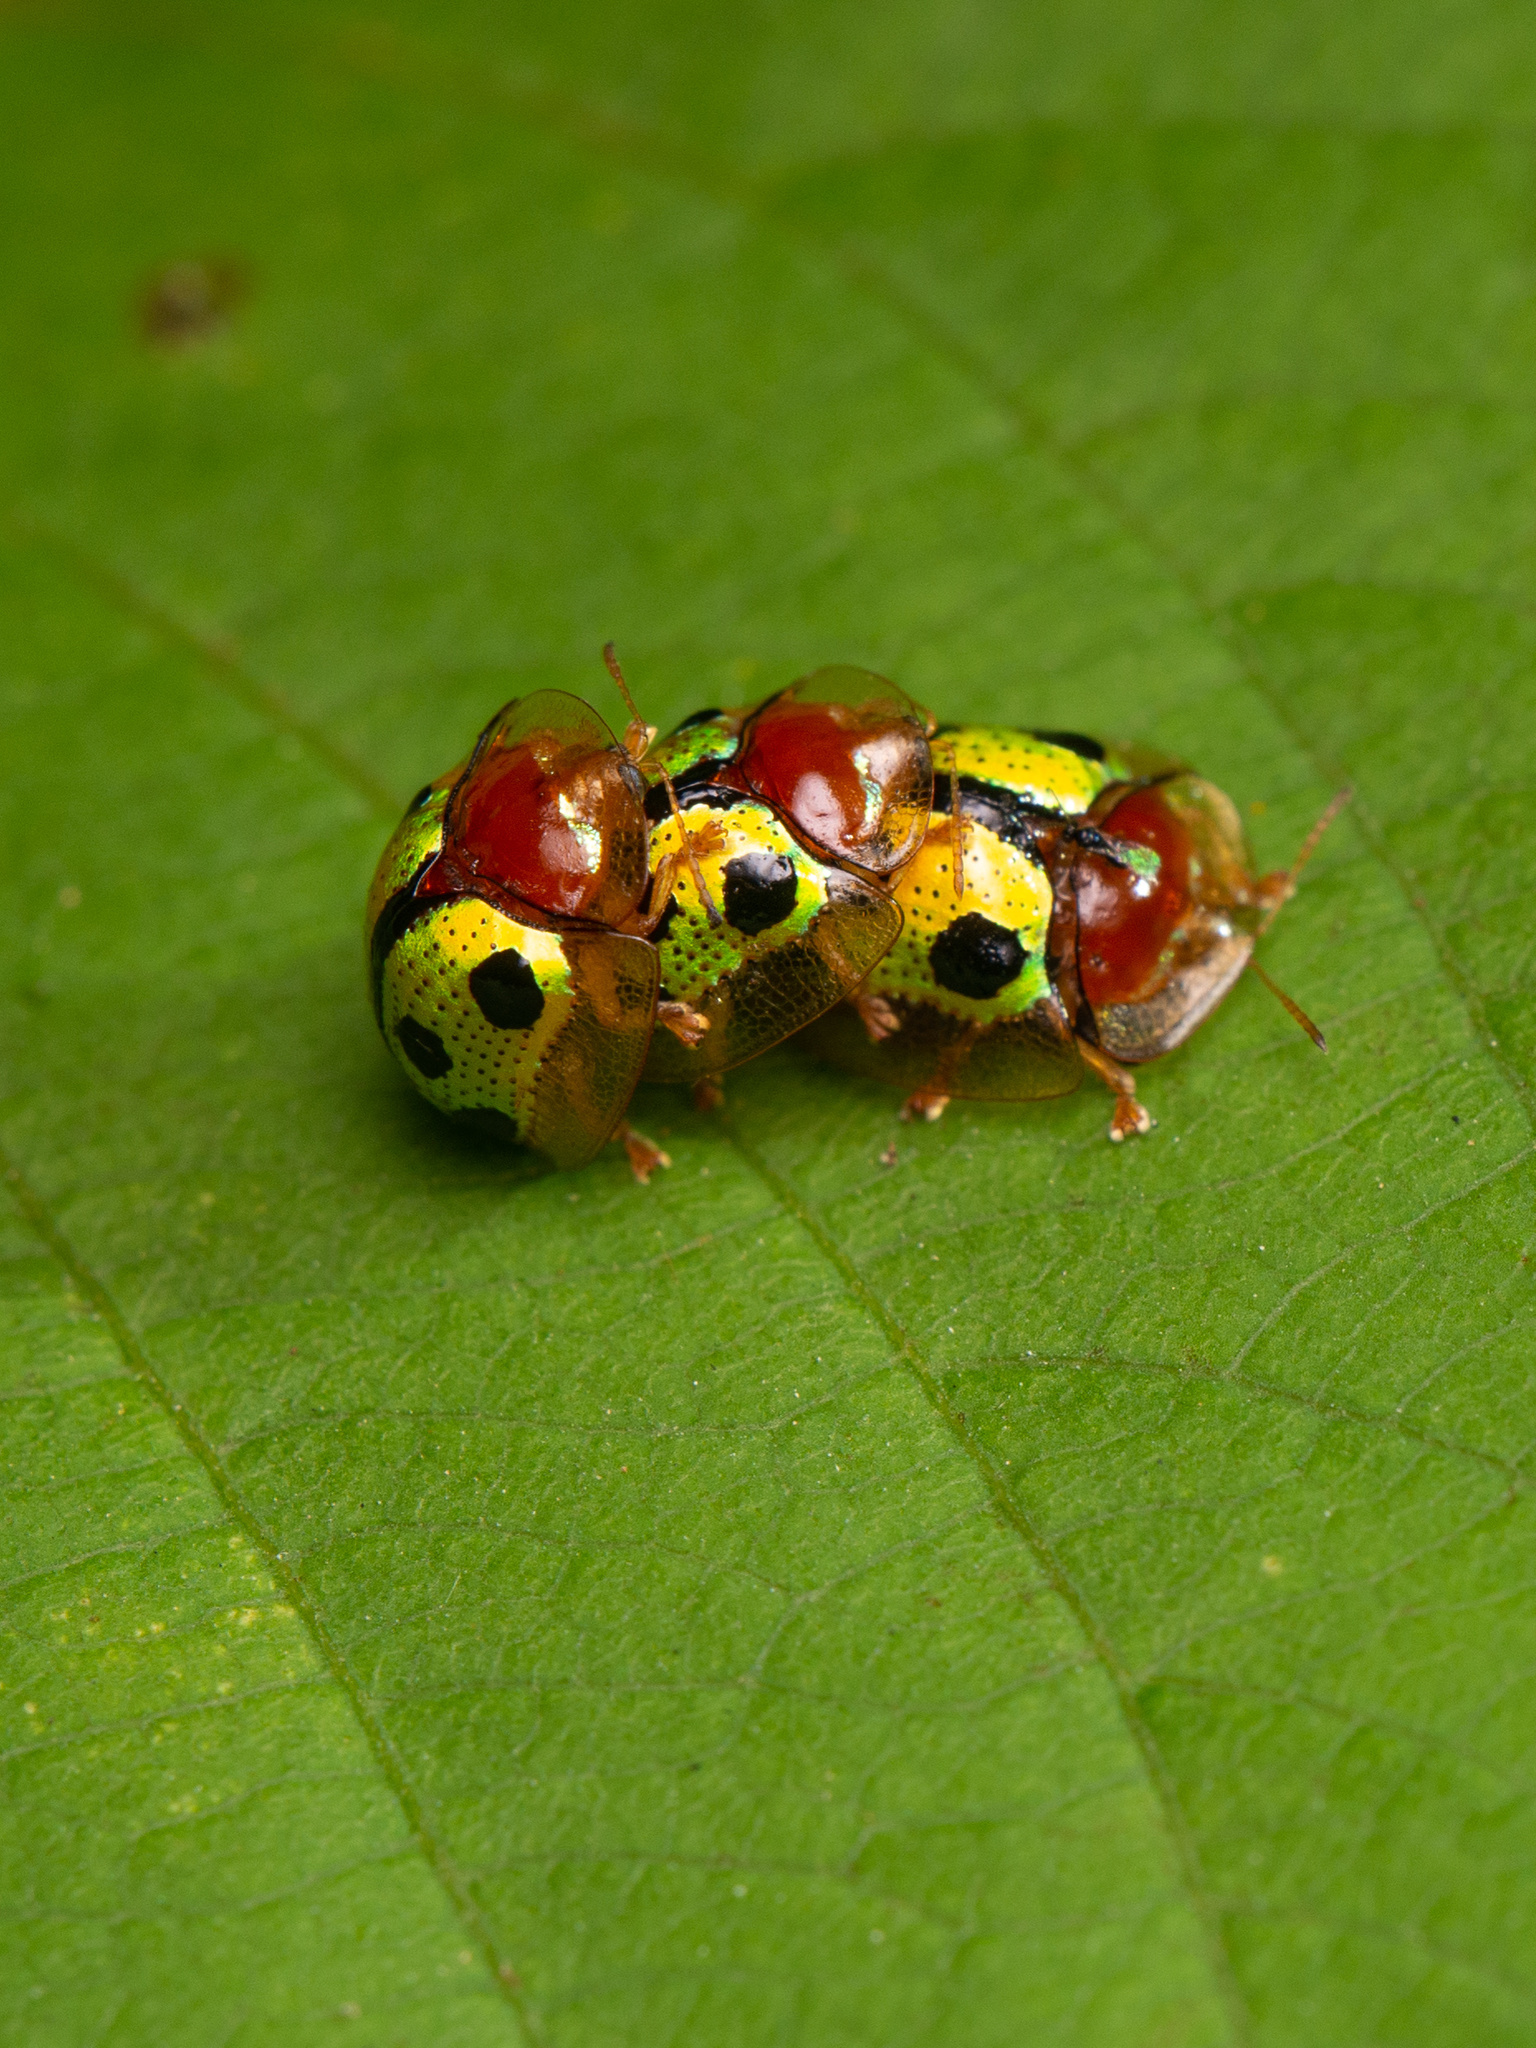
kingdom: Animalia
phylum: Arthropoda
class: Insecta
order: Coleoptera
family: Chrysomelidae
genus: Chiridopsis
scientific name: Chiridopsis bowringii
